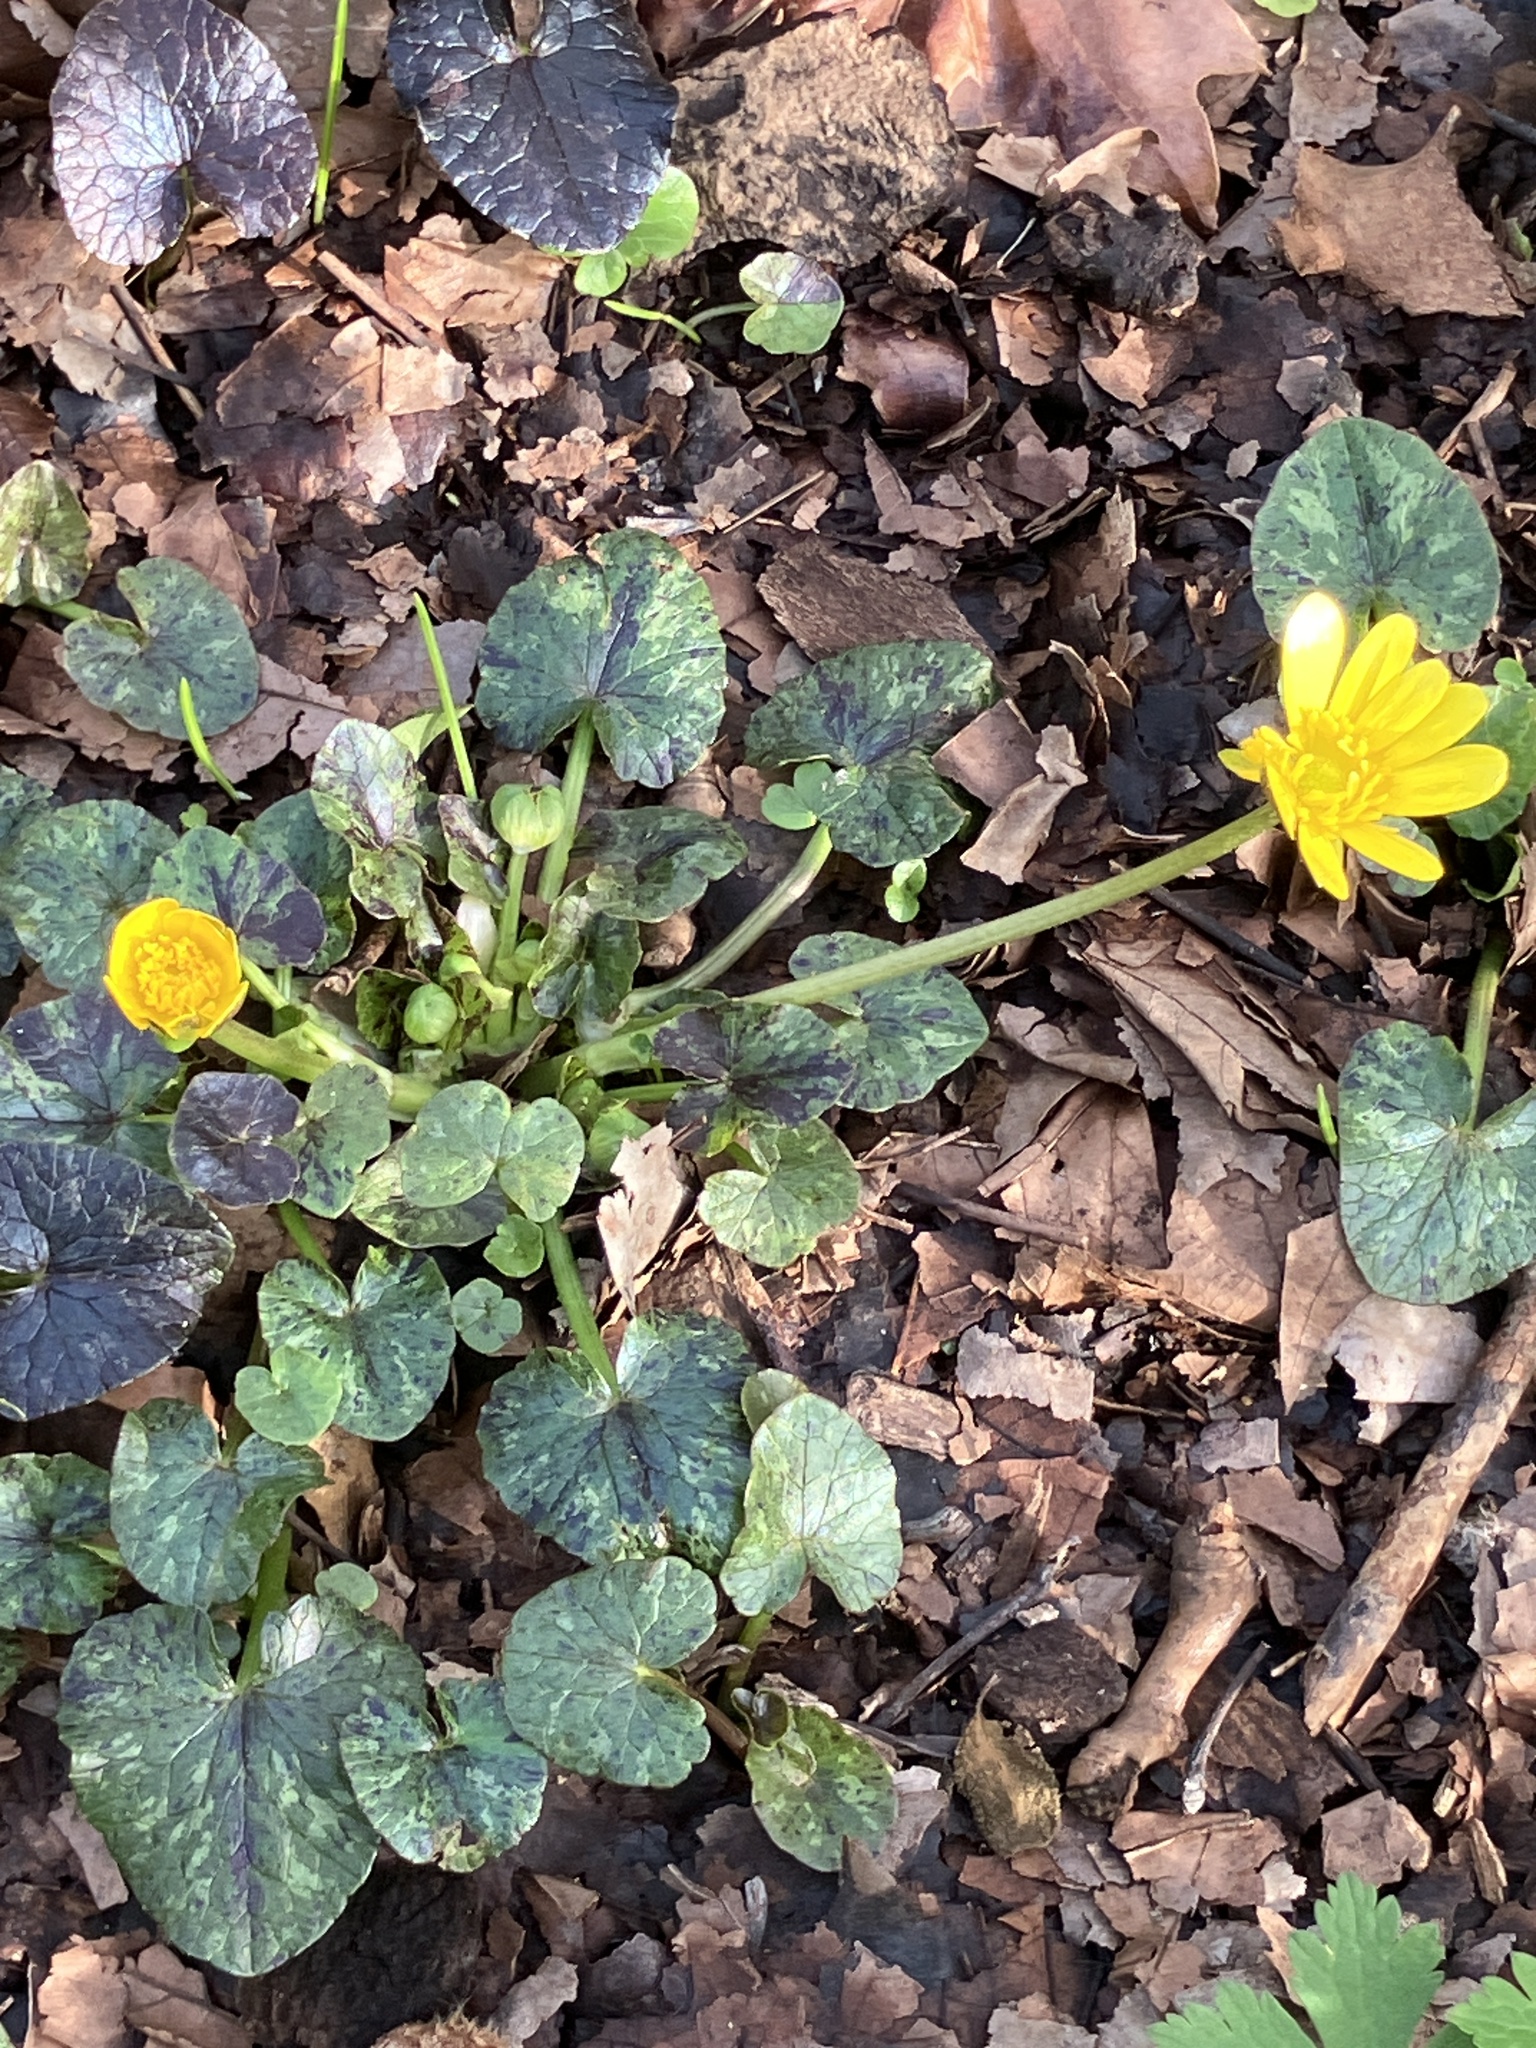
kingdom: Plantae
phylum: Tracheophyta
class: Magnoliopsida
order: Ranunculales
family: Ranunculaceae
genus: Ficaria
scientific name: Ficaria verna
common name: Lesser celandine
